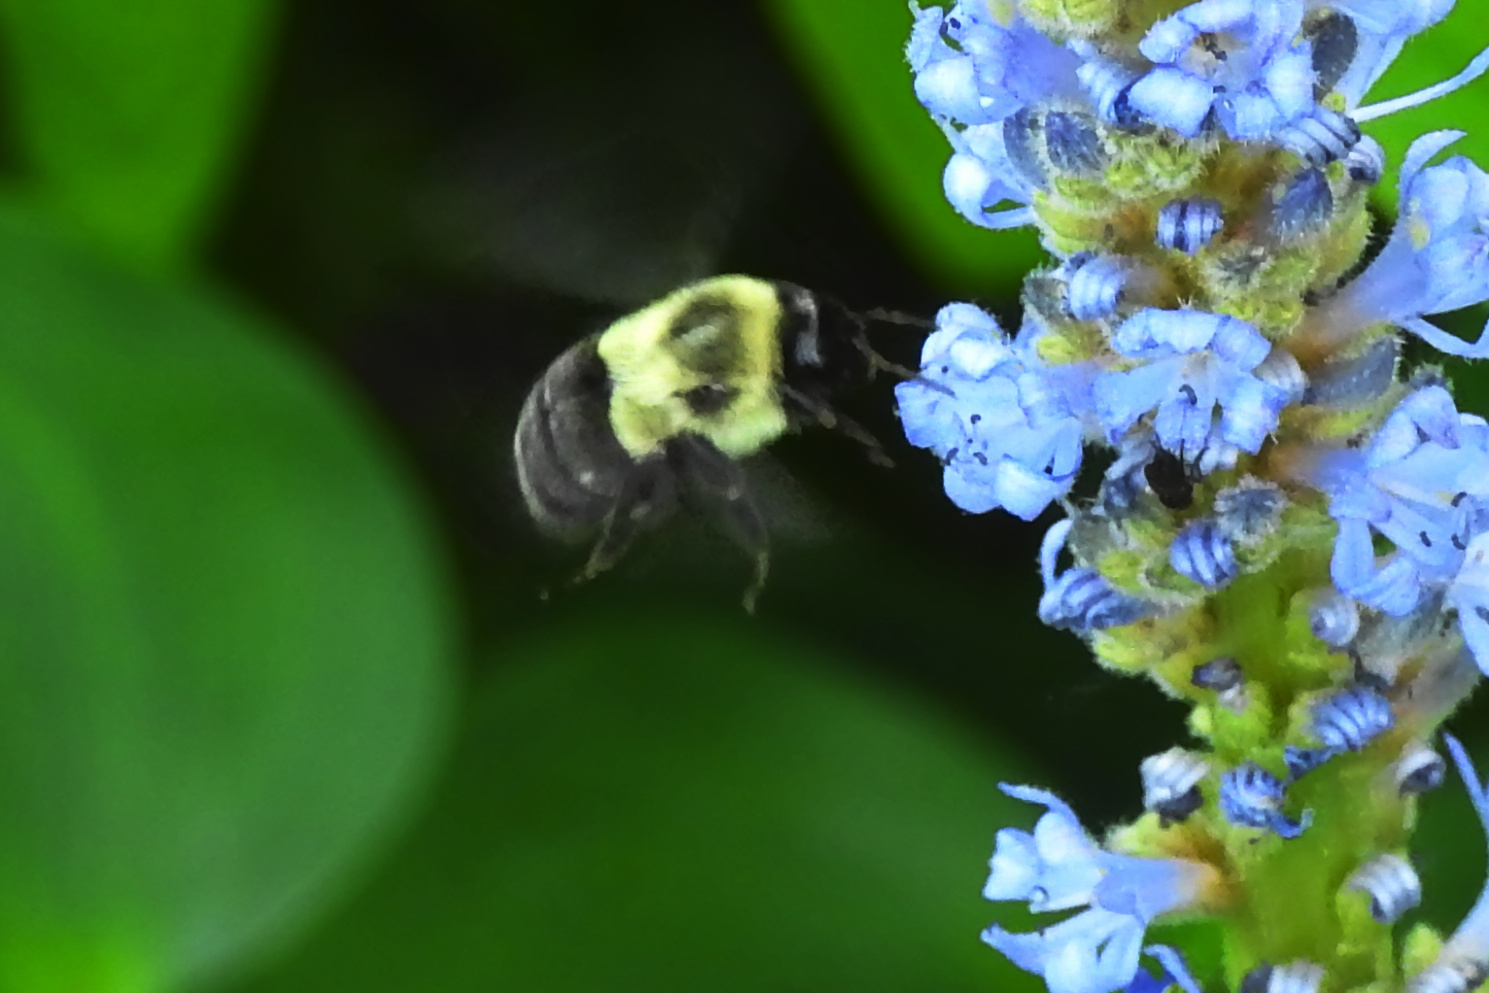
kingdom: Animalia
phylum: Arthropoda
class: Insecta
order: Hymenoptera
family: Apidae
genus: Bombus
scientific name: Bombus impatiens
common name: Common eastern bumble bee
